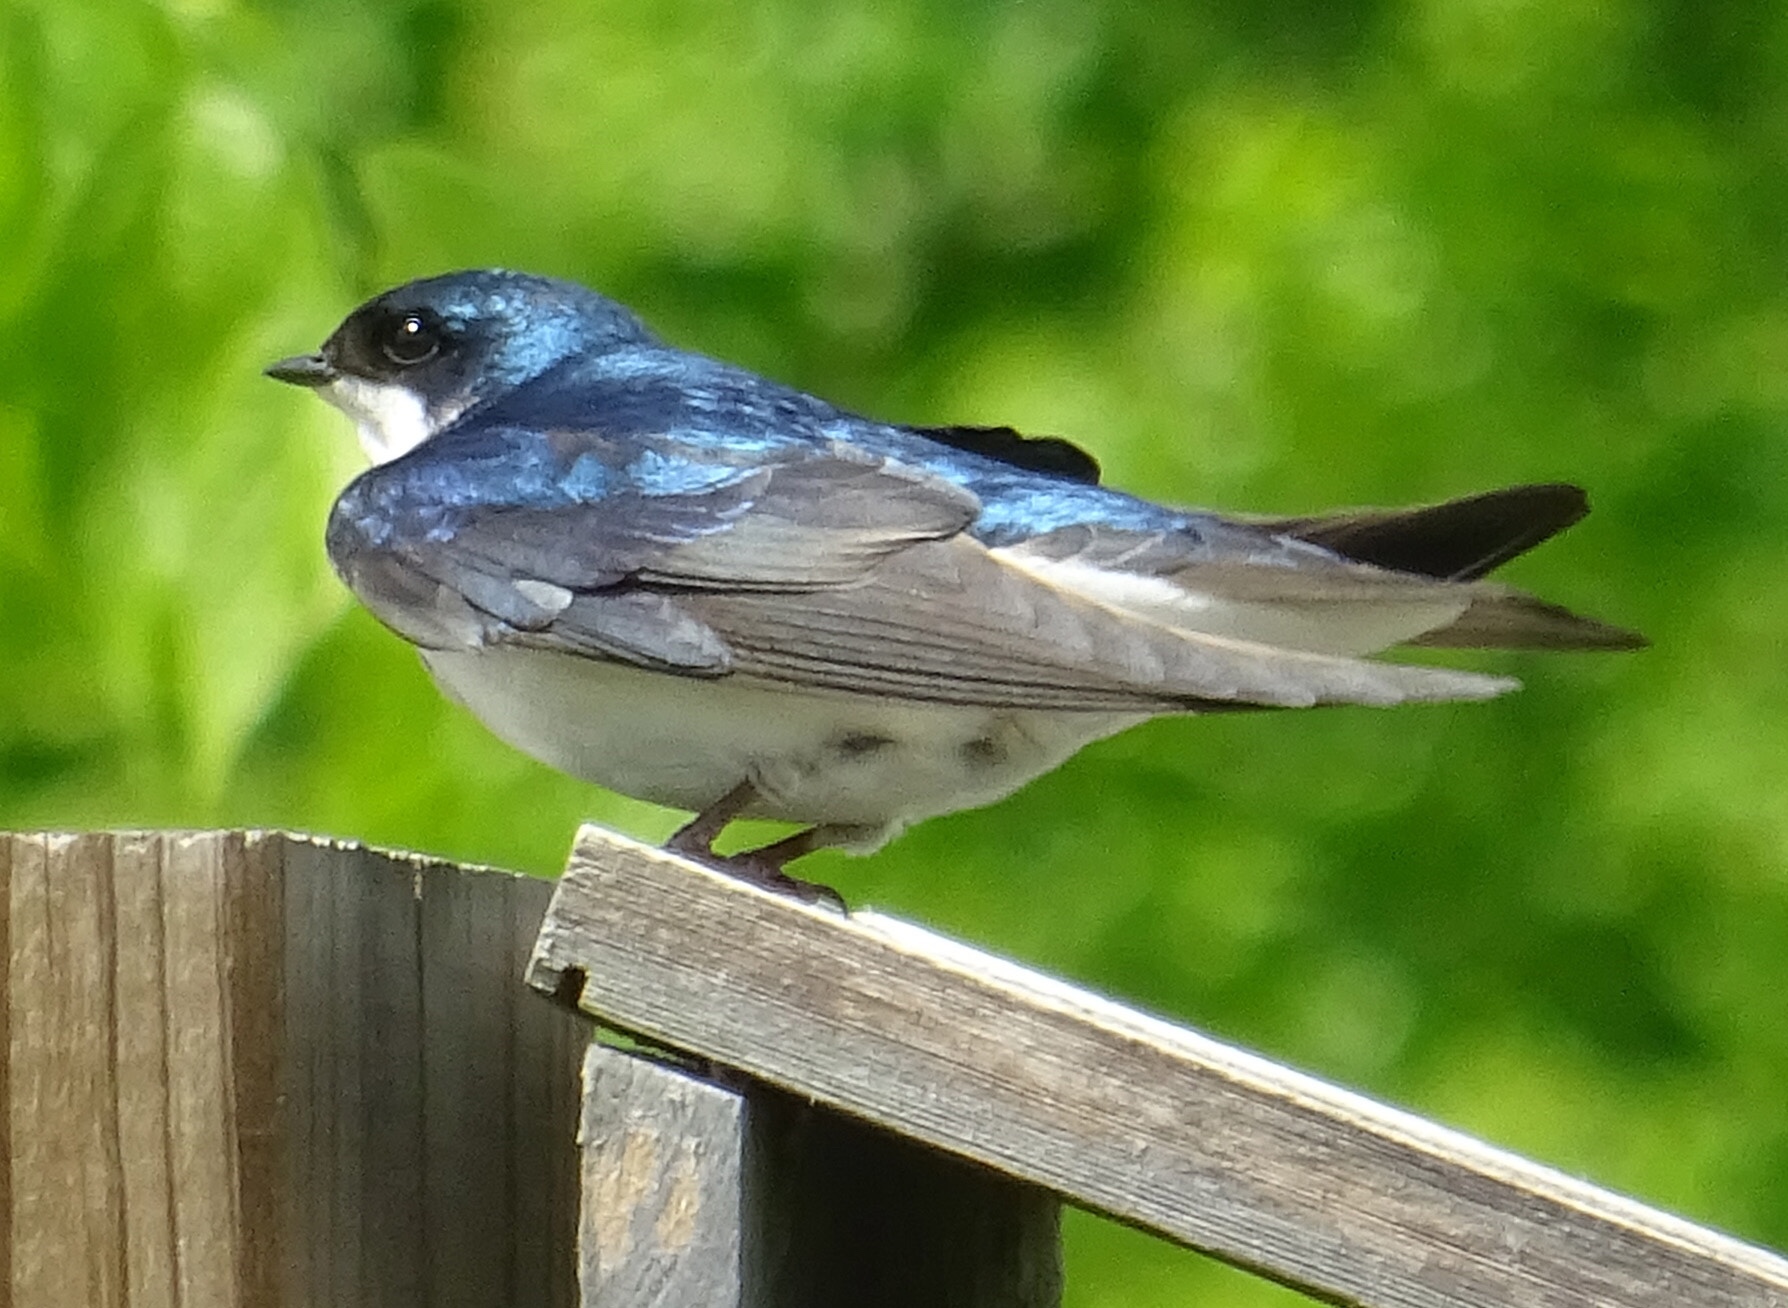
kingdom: Animalia
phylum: Chordata
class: Aves
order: Passeriformes
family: Hirundinidae
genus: Tachycineta
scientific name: Tachycineta bicolor
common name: Tree swallow
